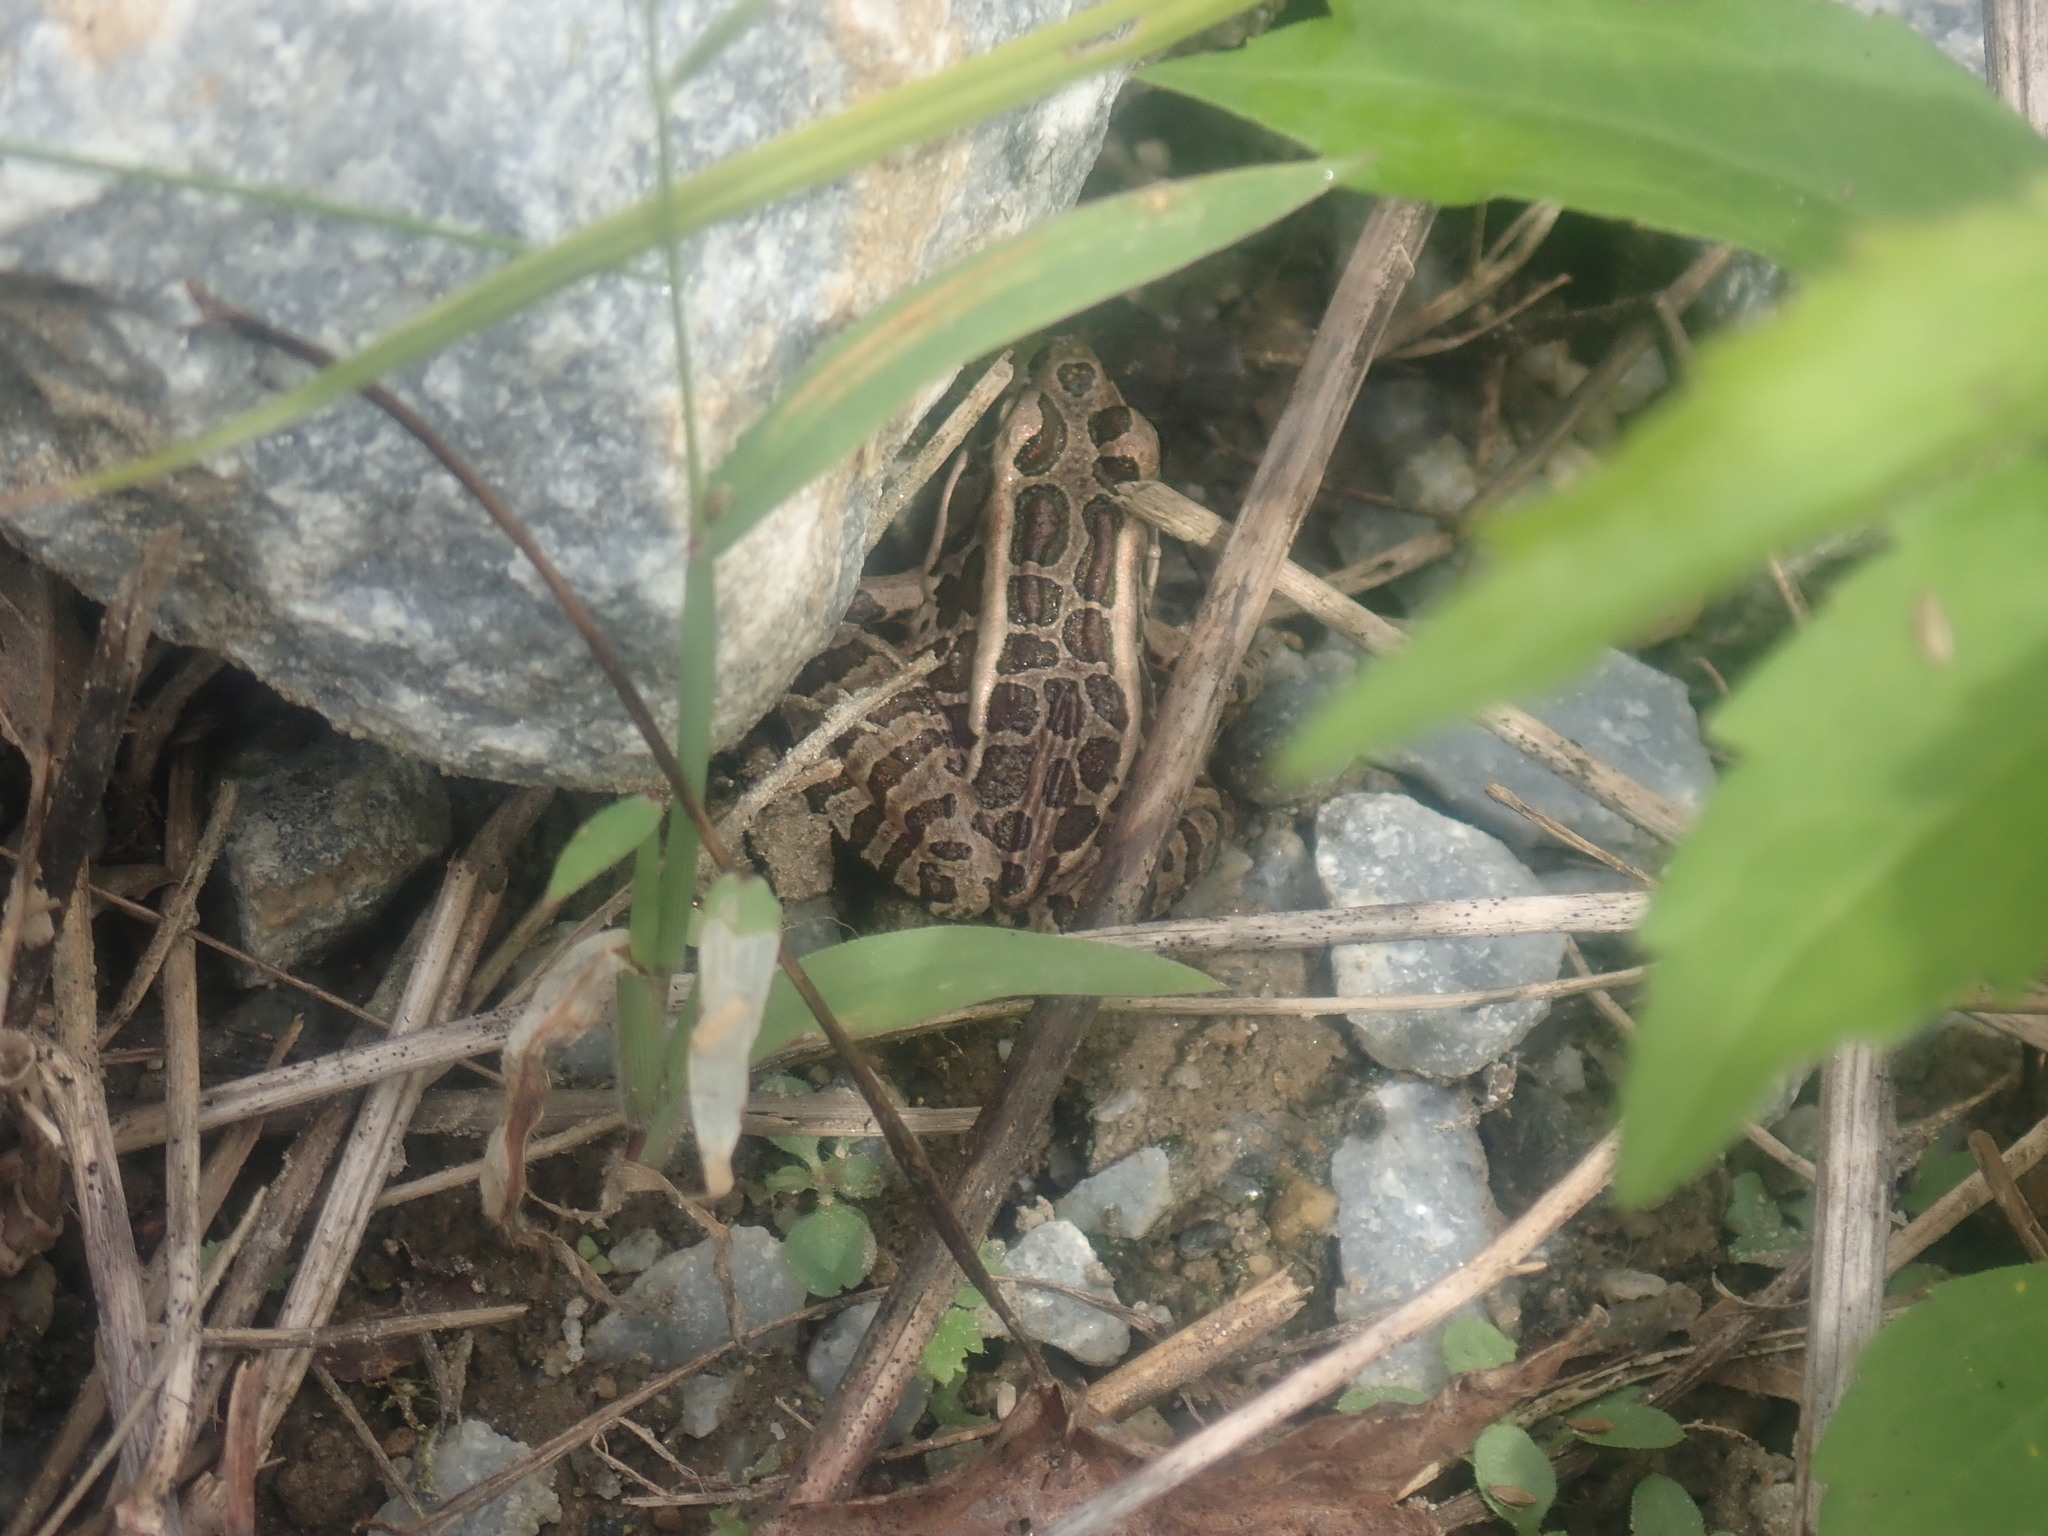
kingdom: Animalia
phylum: Chordata
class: Amphibia
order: Anura
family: Ranidae
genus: Lithobates
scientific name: Lithobates palustris
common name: Pickerel frog
